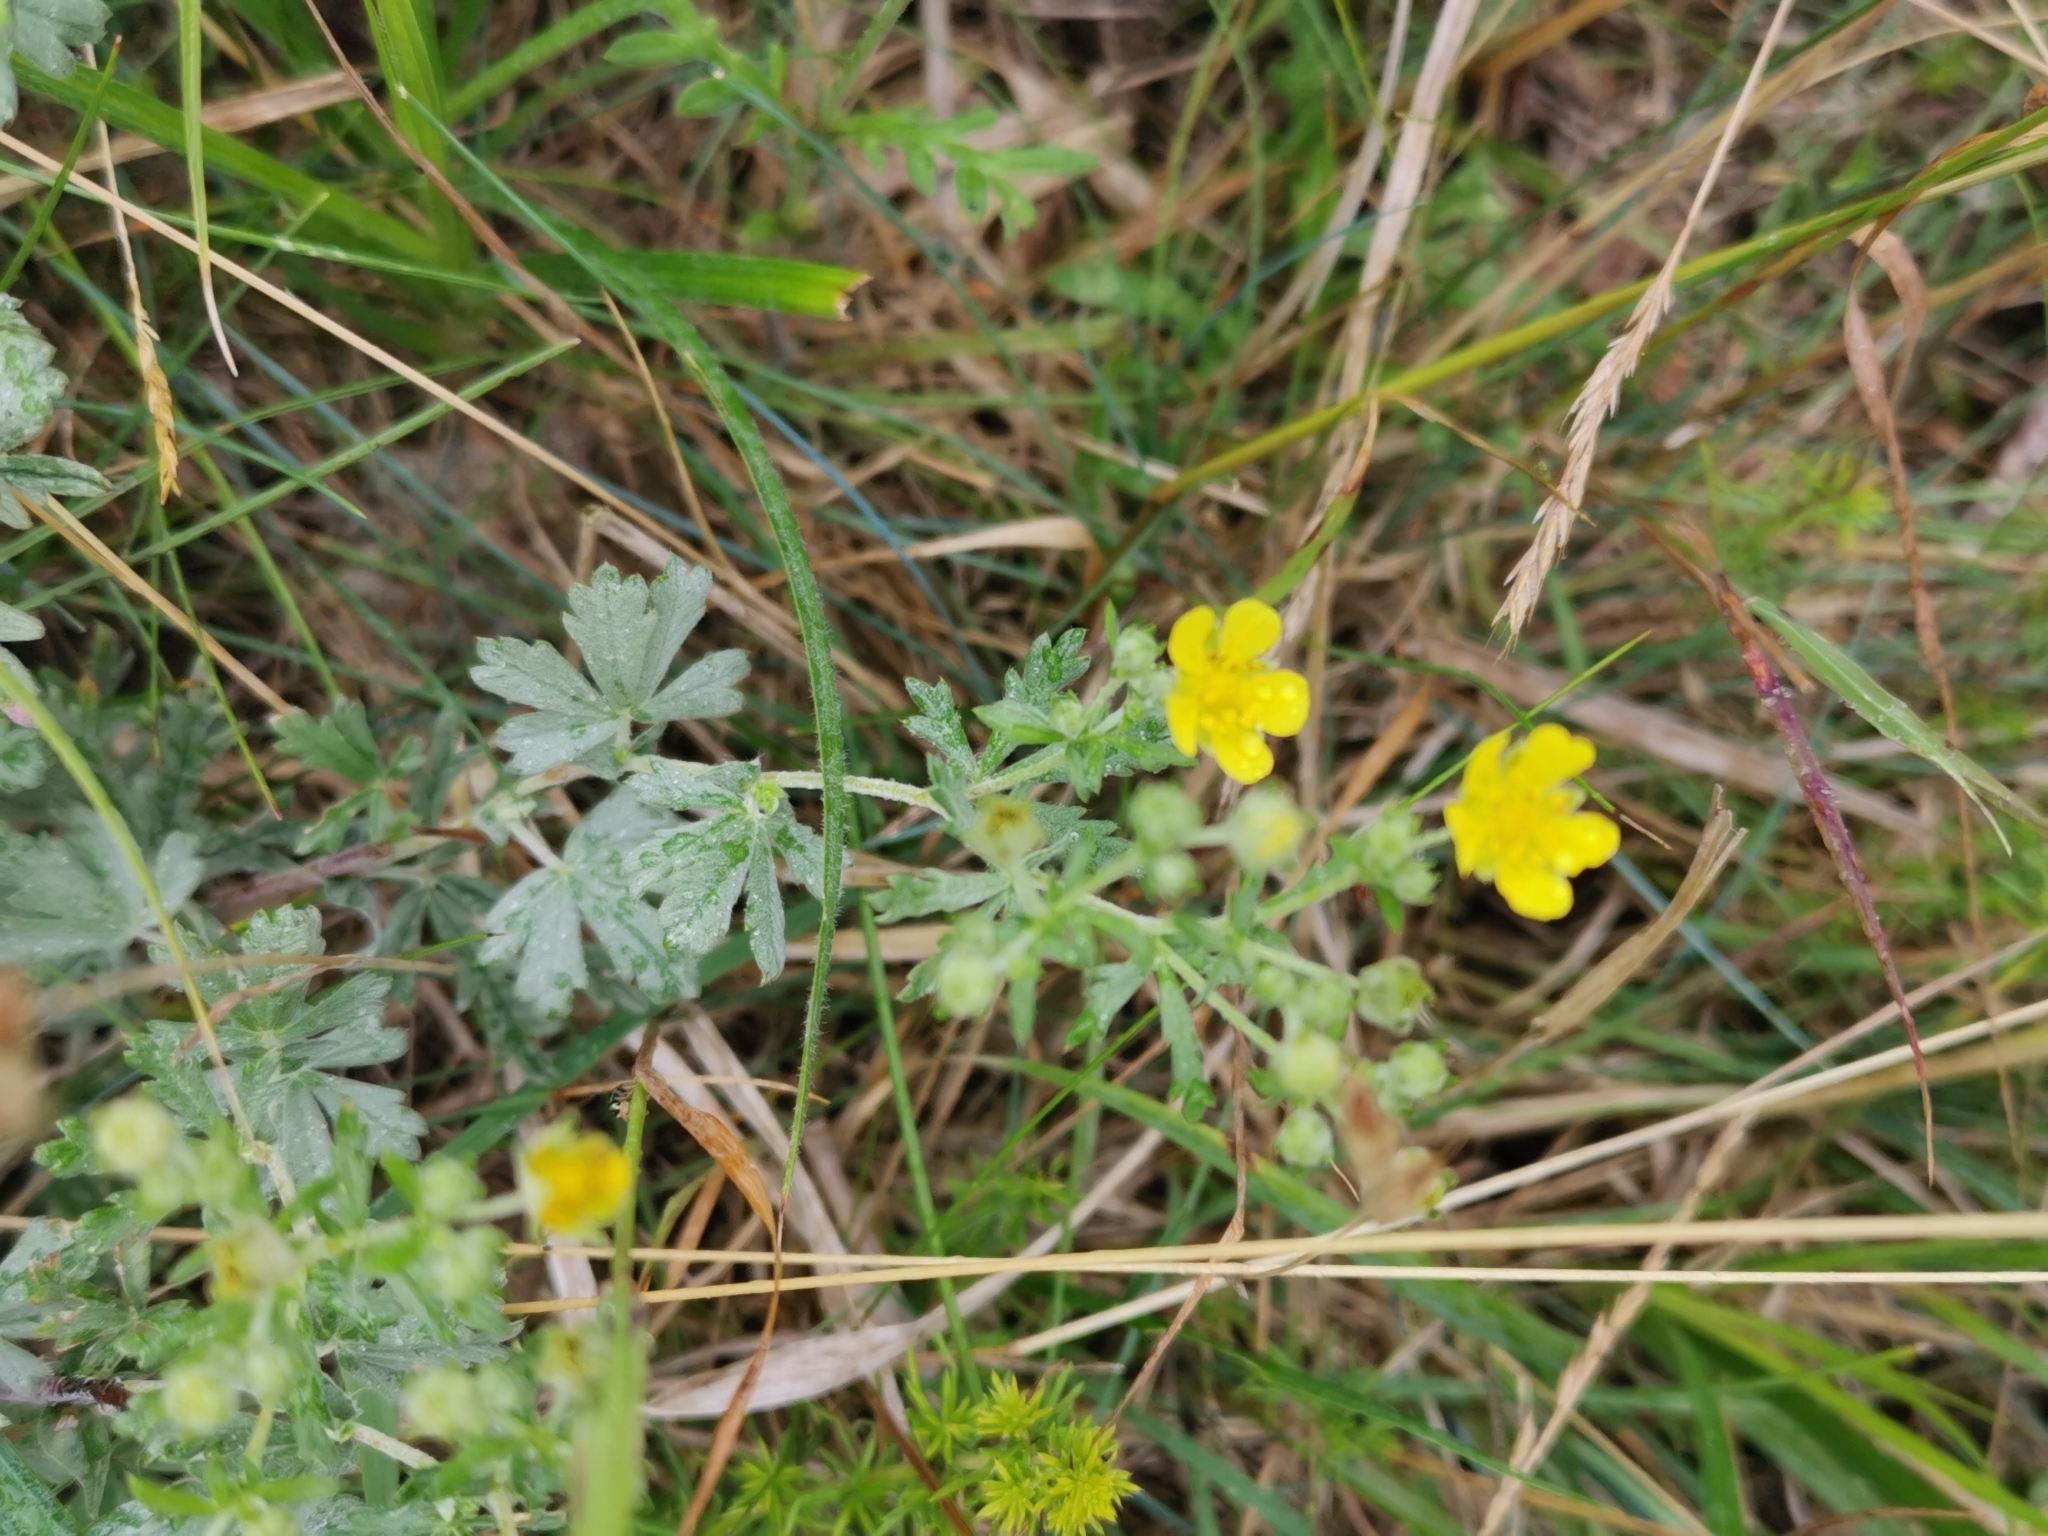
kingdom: Plantae
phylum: Tracheophyta
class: Magnoliopsida
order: Rosales
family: Rosaceae
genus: Potentilla
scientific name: Potentilla argentea
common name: Hoary cinquefoil
